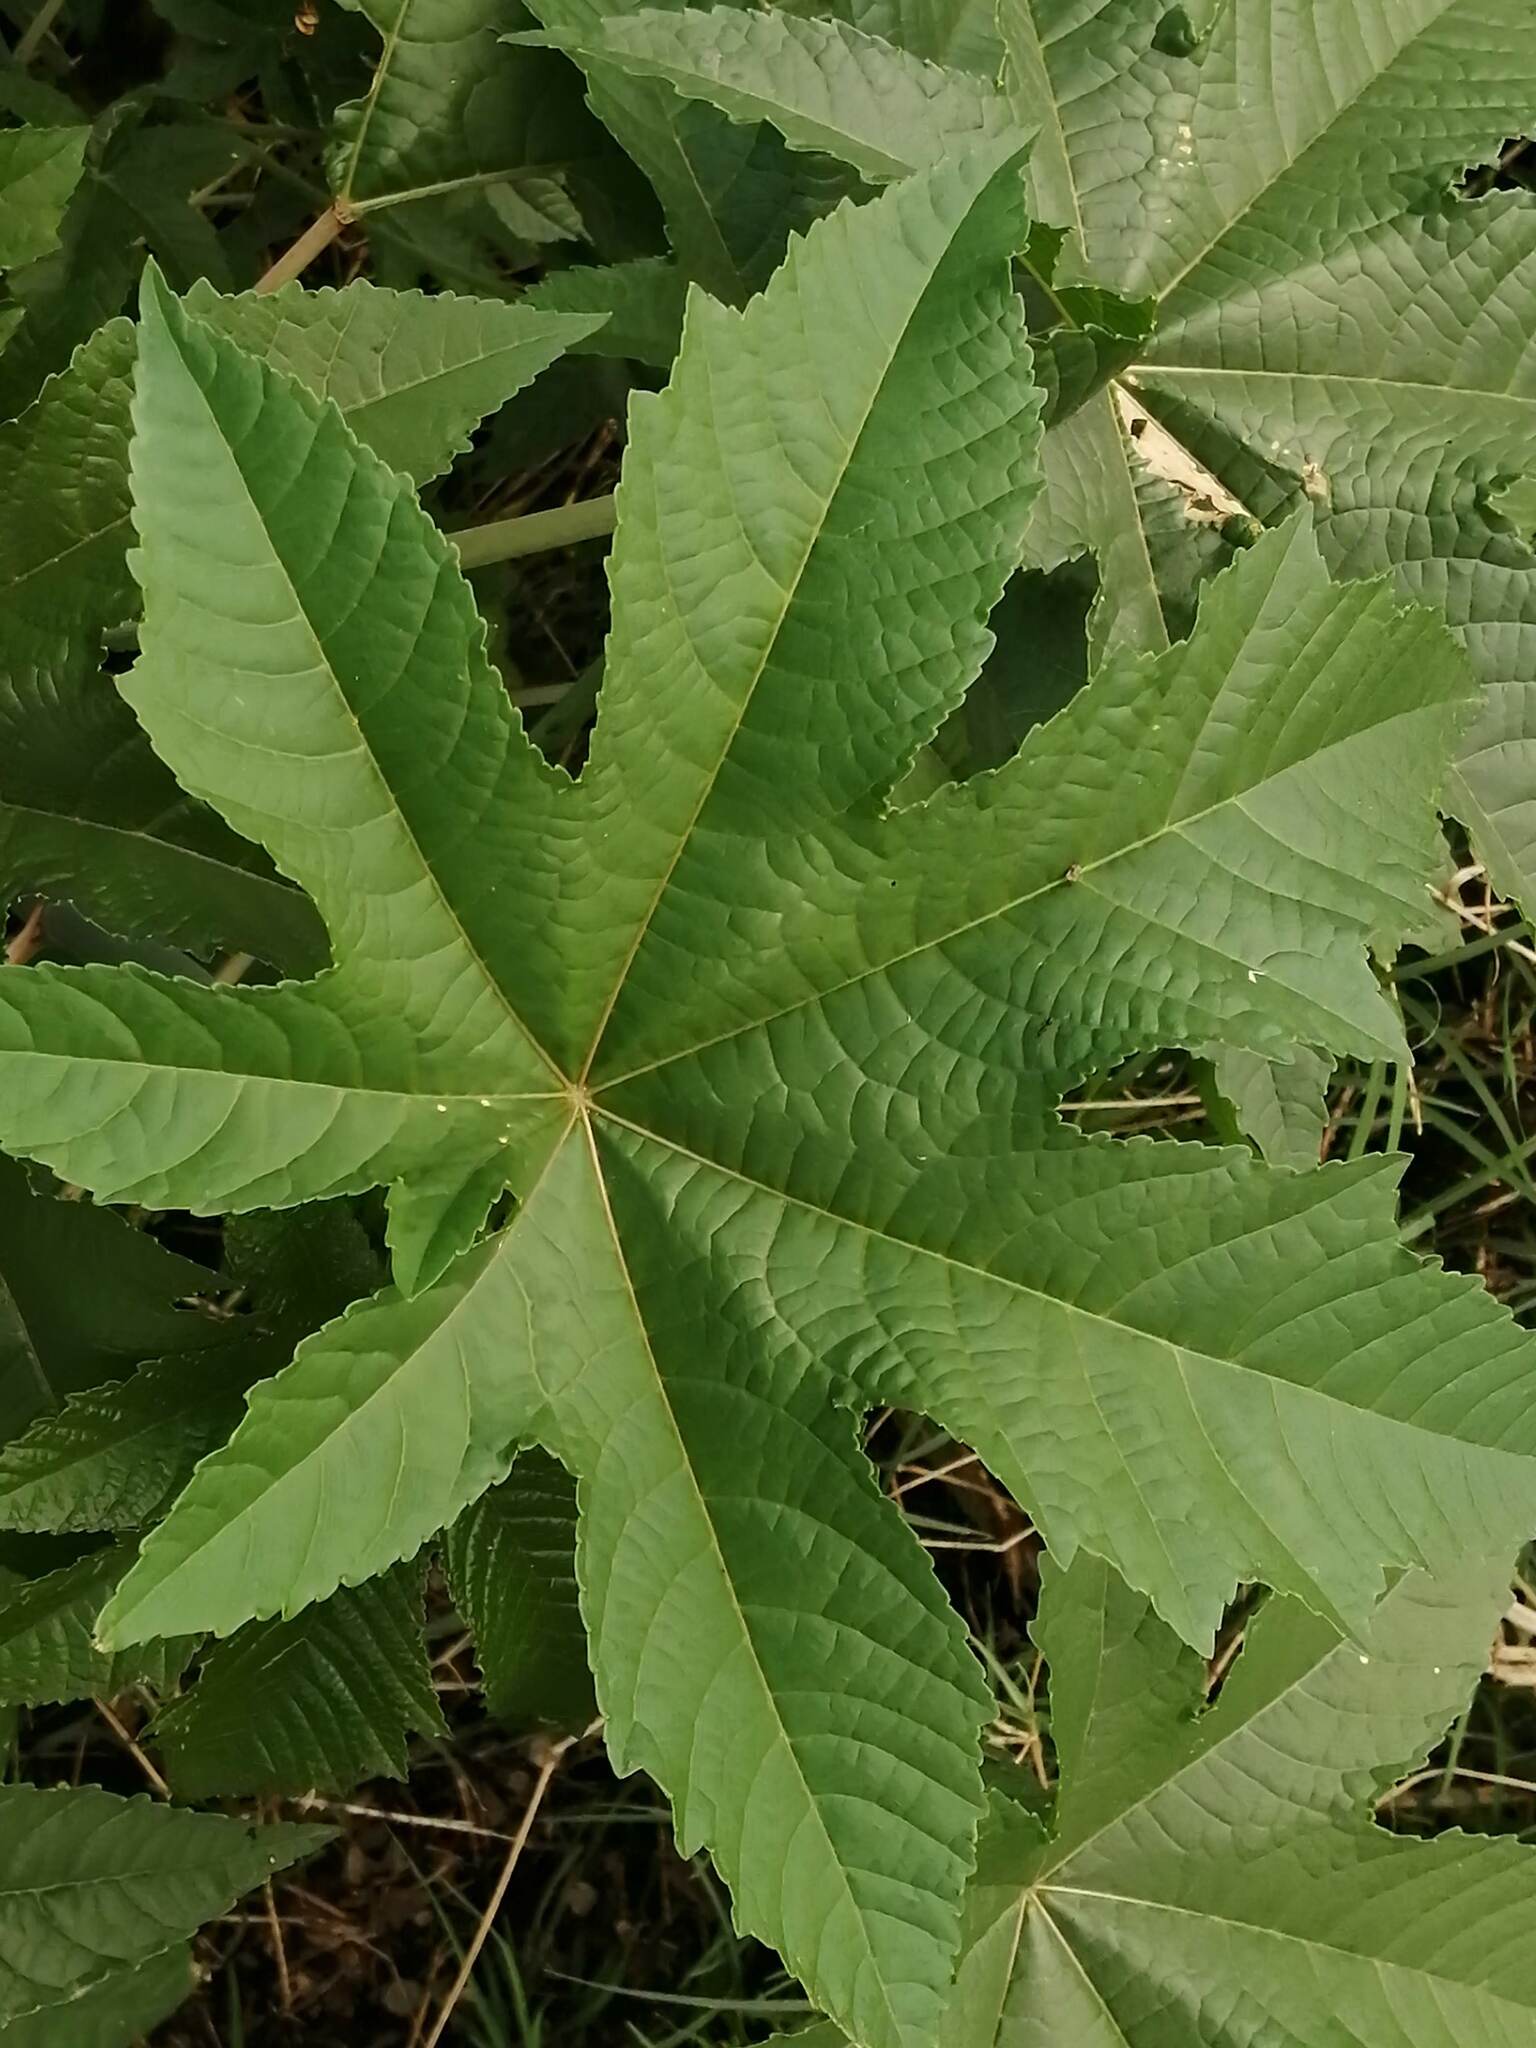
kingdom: Plantae
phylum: Tracheophyta
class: Magnoliopsida
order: Malpighiales
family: Euphorbiaceae
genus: Ricinus
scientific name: Ricinus communis
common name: Castor-oil-plant
